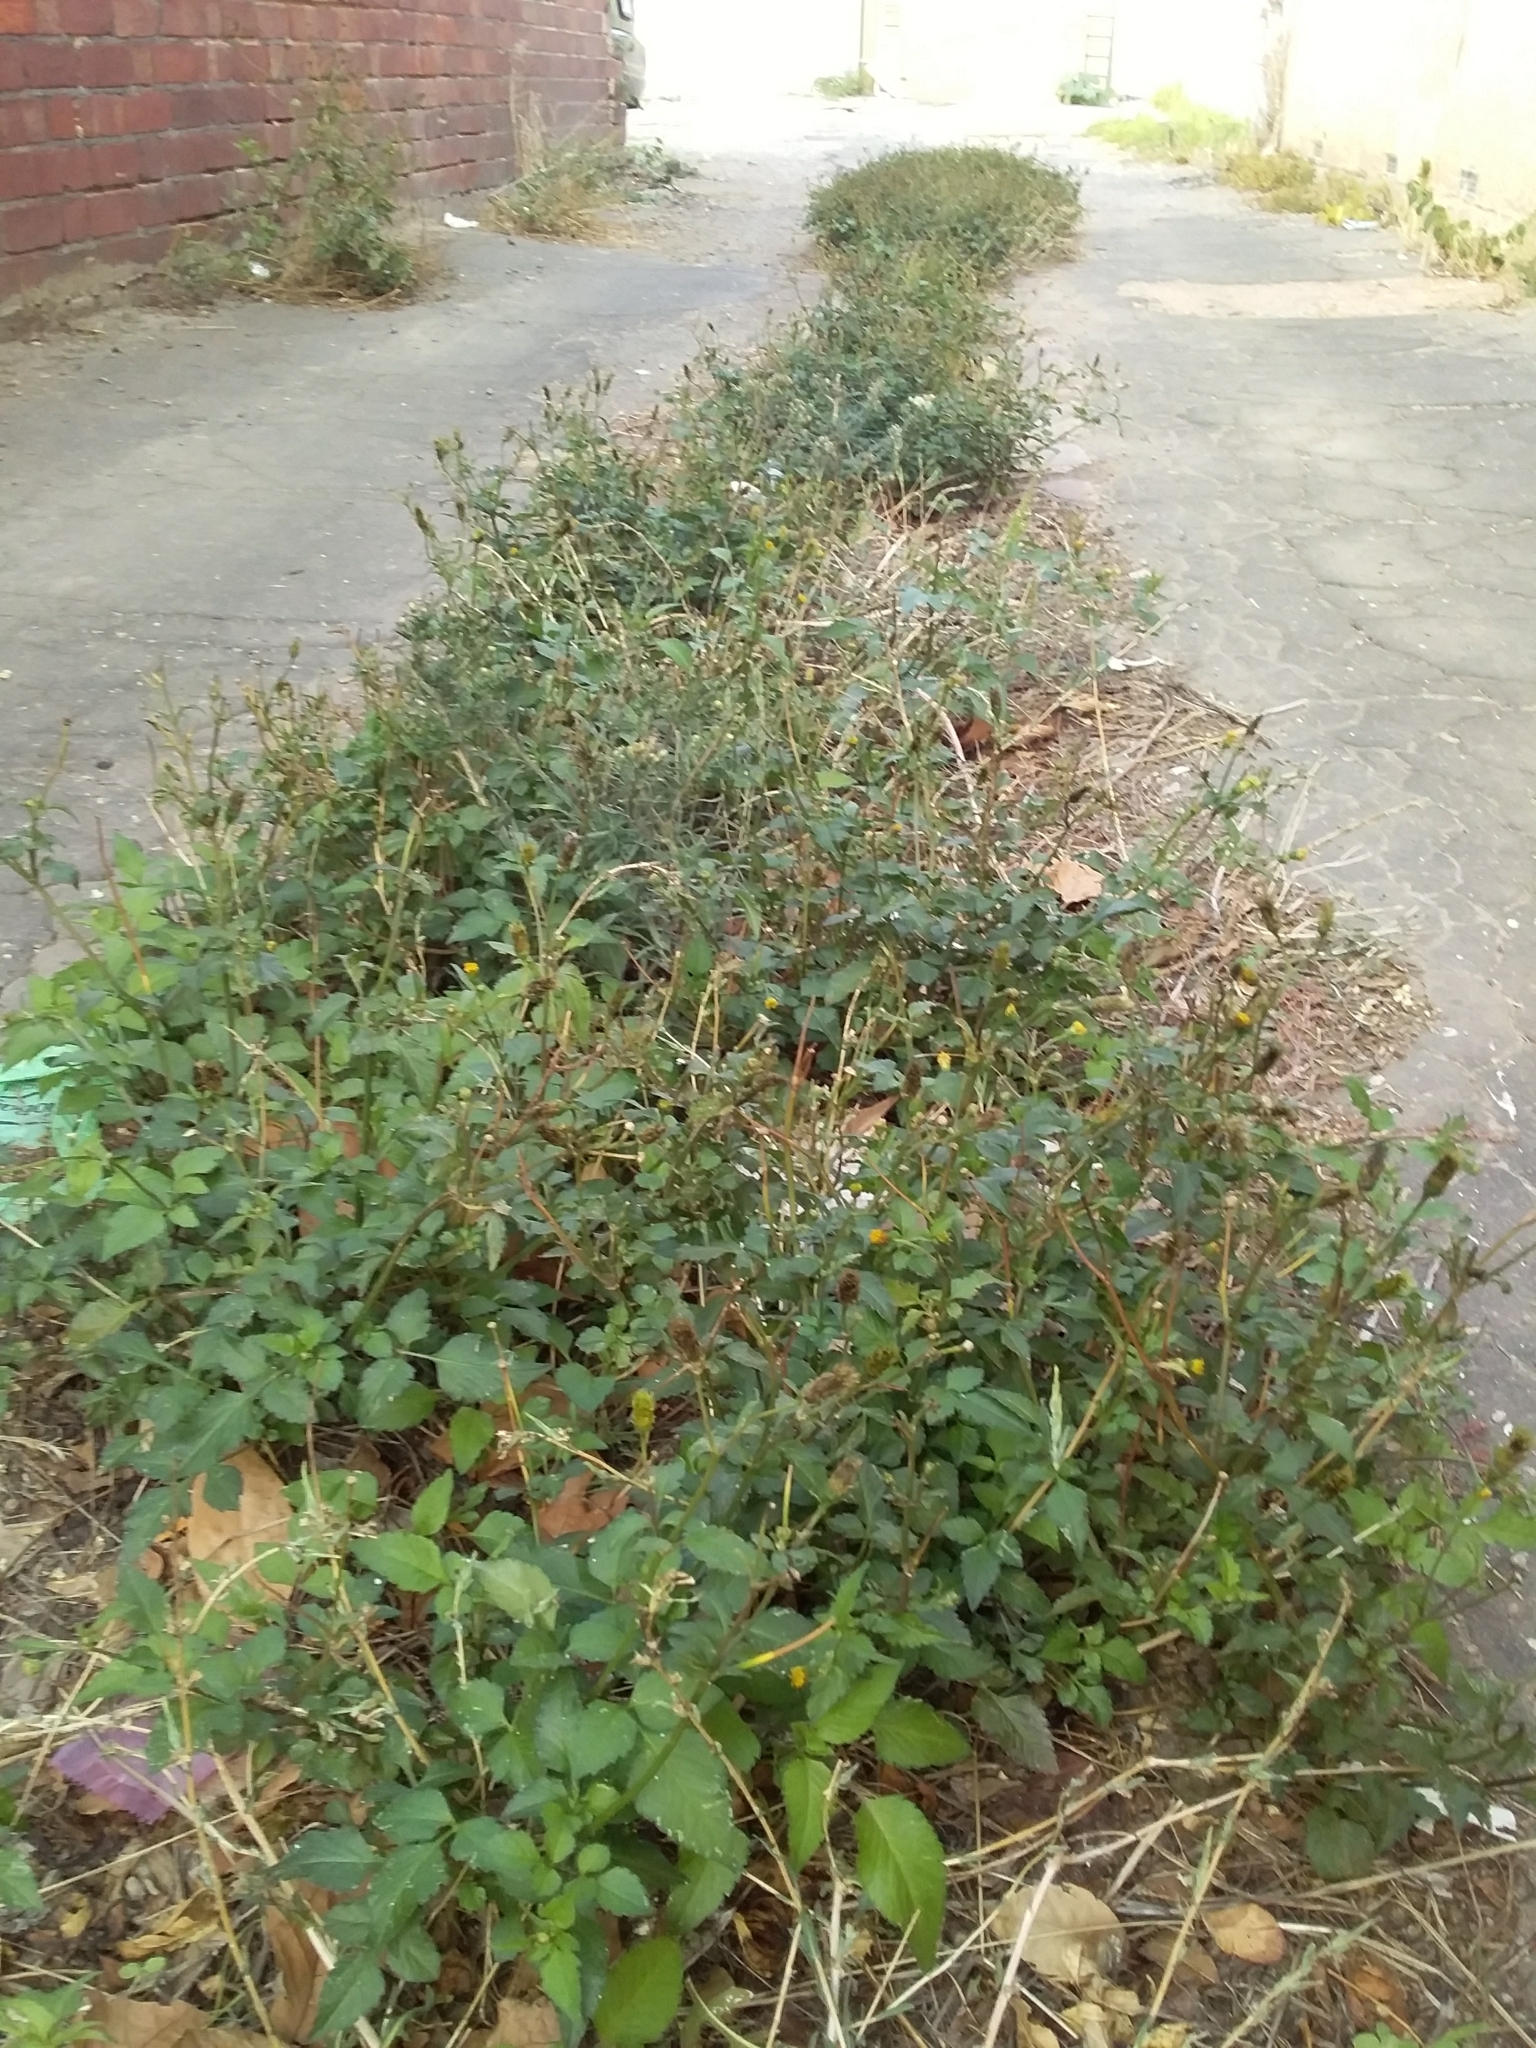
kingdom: Plantae
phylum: Tracheophyta
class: Magnoliopsida
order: Asterales
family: Asteraceae
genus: Bidens
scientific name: Bidens pilosa
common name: Black-jack
